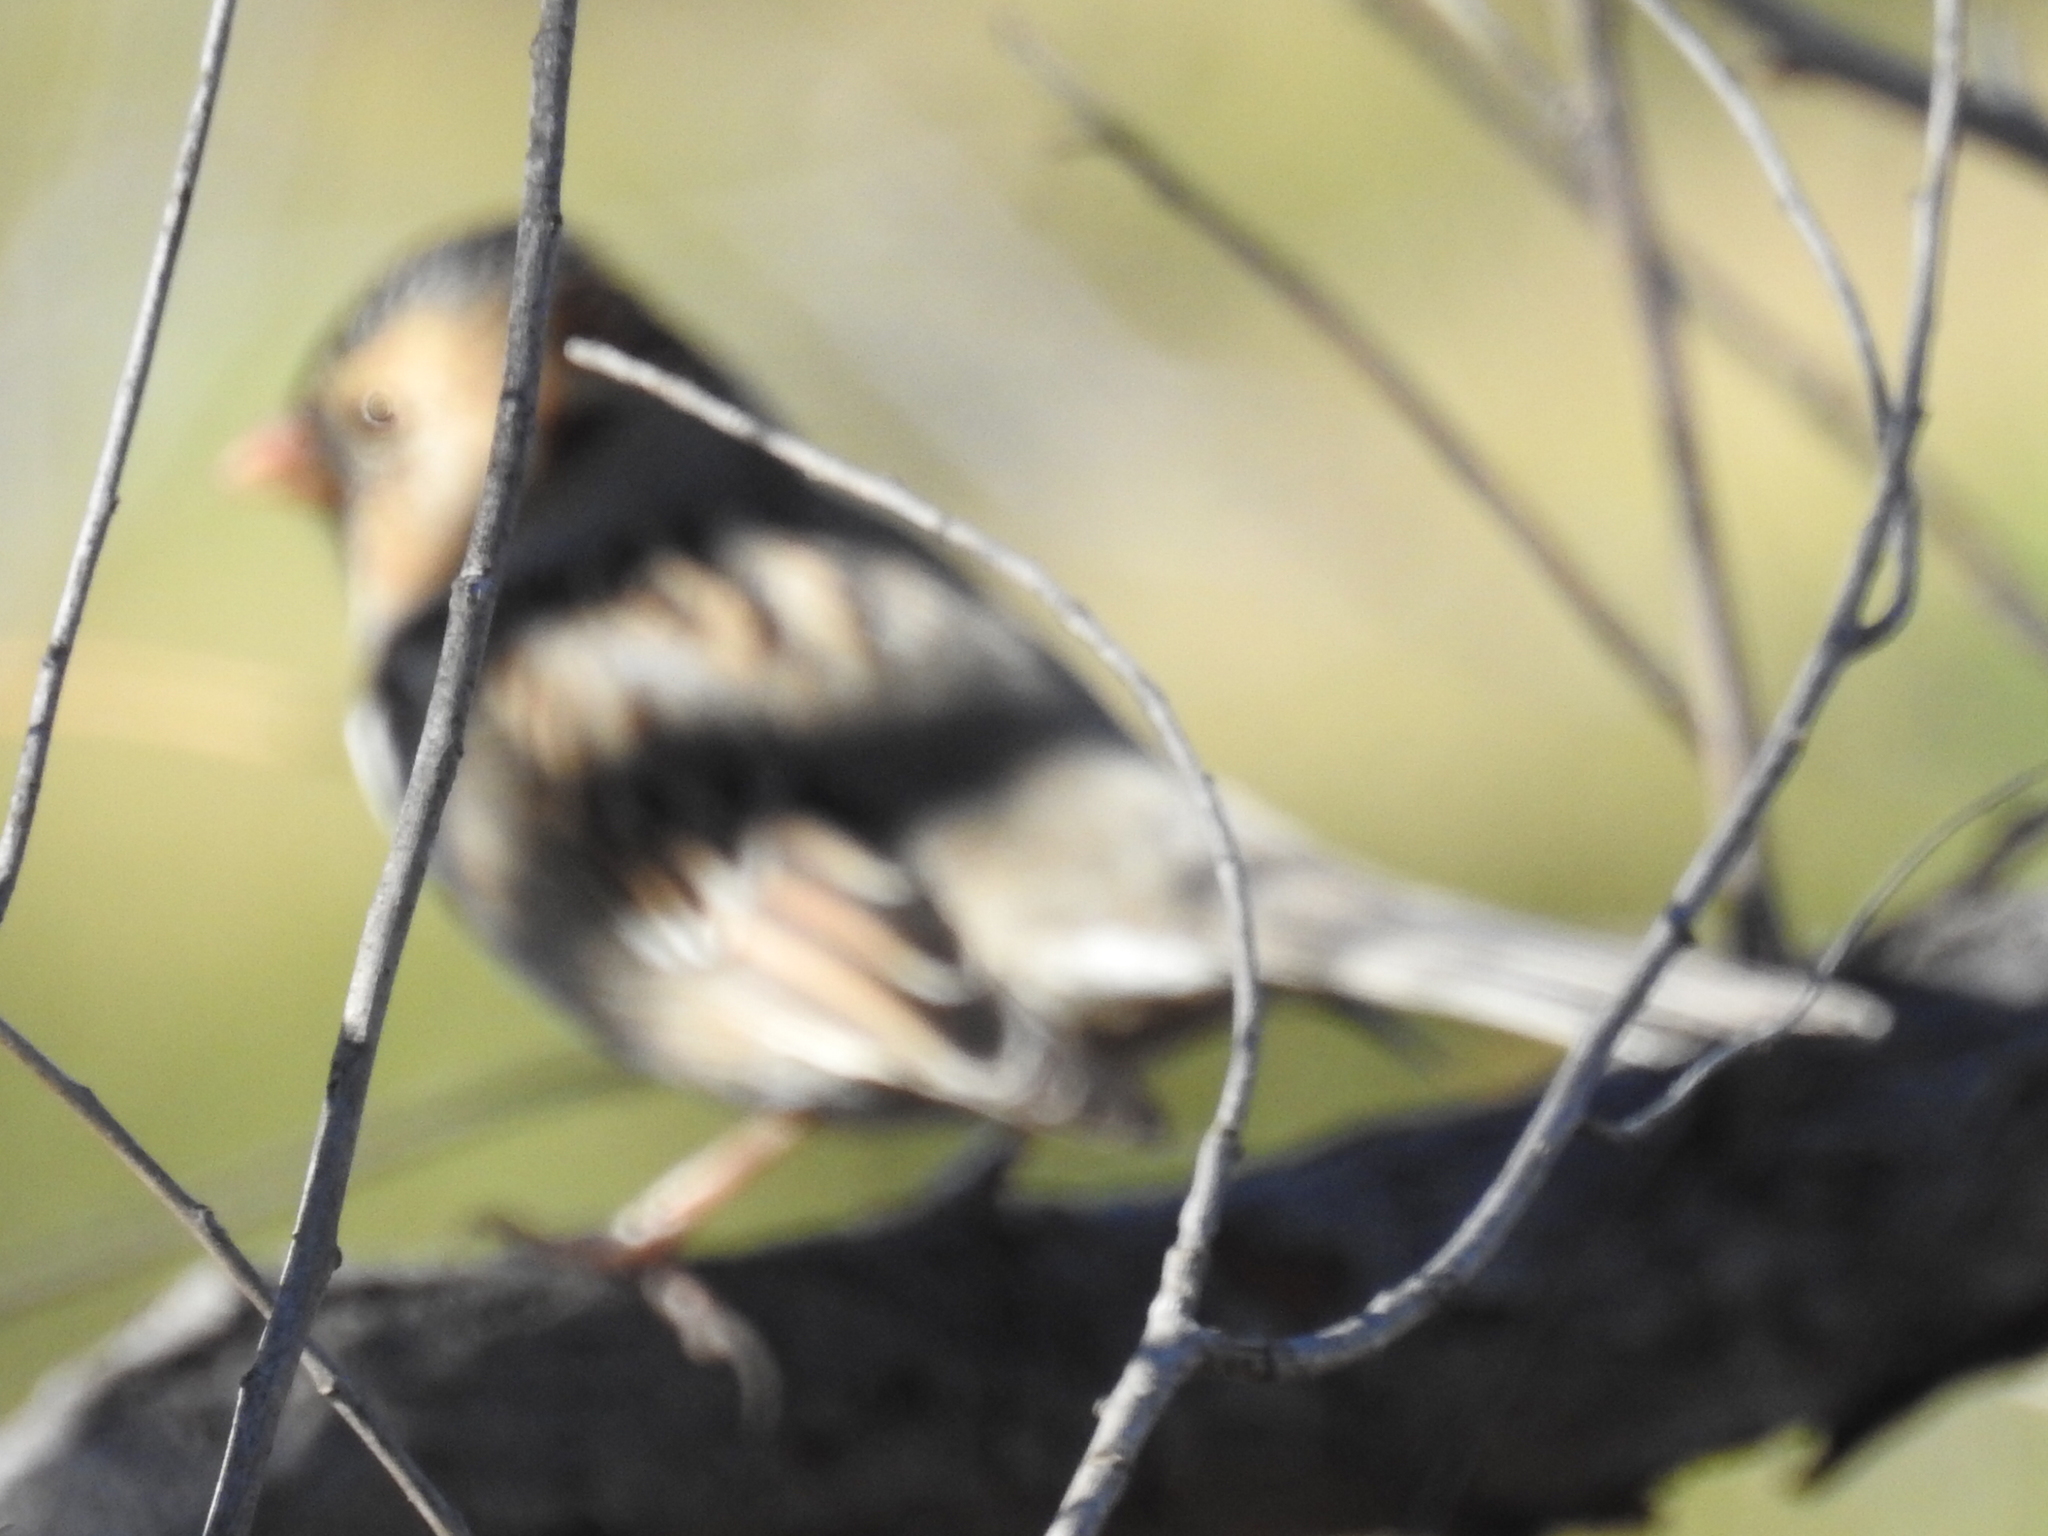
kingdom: Animalia
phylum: Chordata
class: Aves
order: Passeriformes
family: Passerellidae
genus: Zonotrichia
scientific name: Zonotrichia querula
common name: Harris's sparrow
